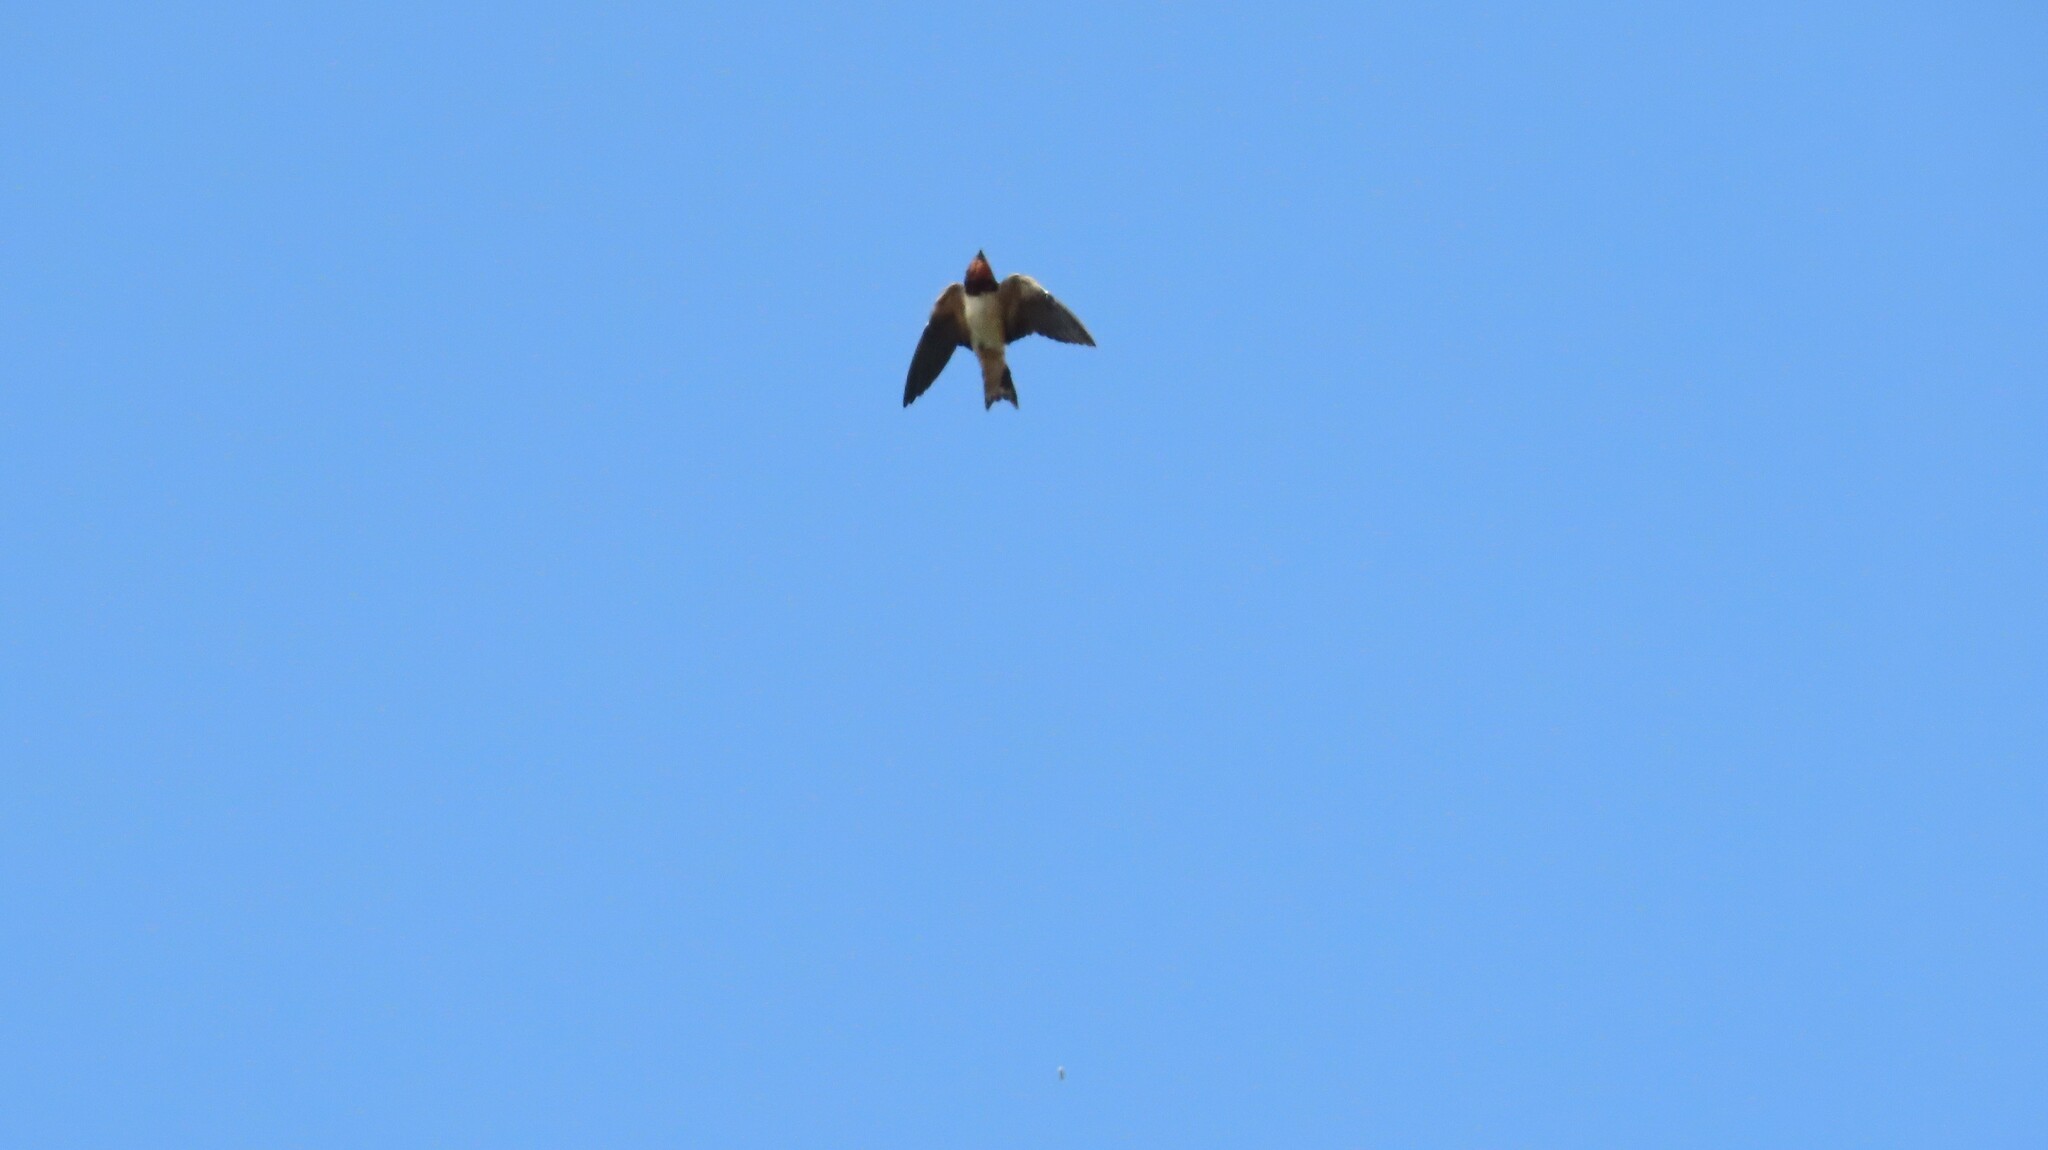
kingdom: Animalia
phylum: Chordata
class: Aves
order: Passeriformes
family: Hirundinidae
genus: Hirundo
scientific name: Hirundo rustica
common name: Barn swallow
